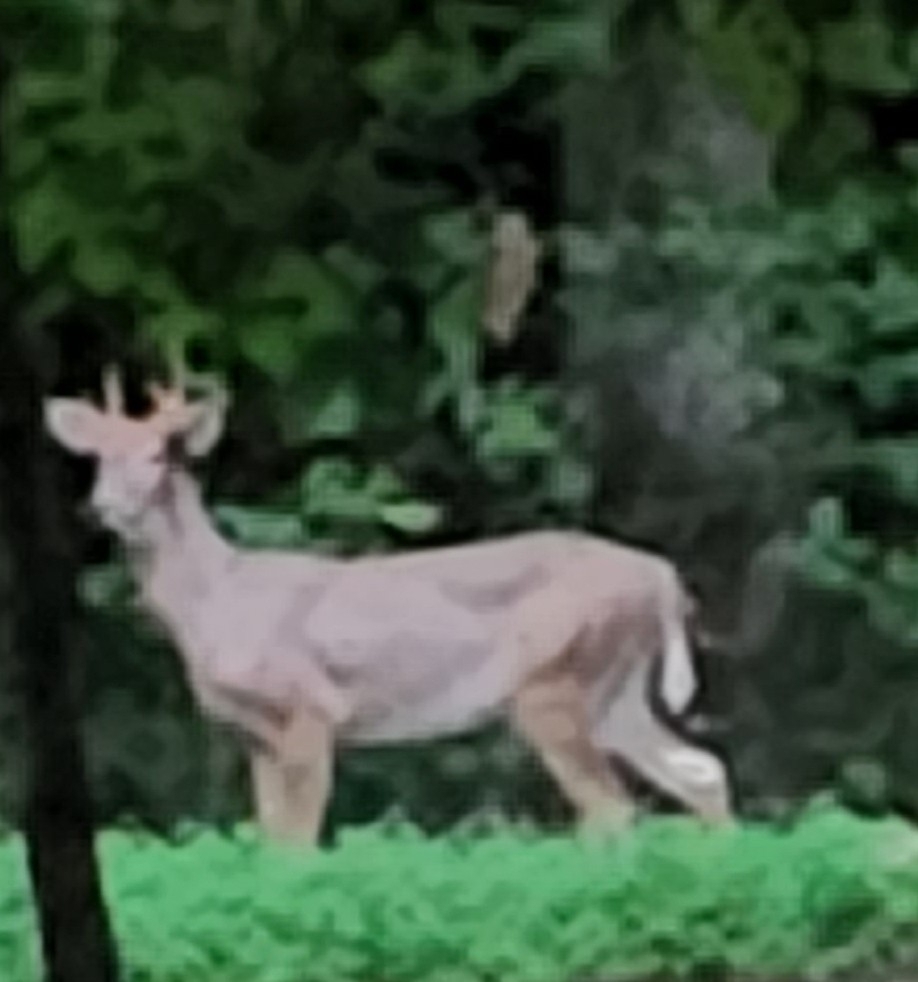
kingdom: Animalia
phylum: Chordata
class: Mammalia
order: Artiodactyla
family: Cervidae
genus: Odocoileus
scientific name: Odocoileus virginianus
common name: White-tailed deer
